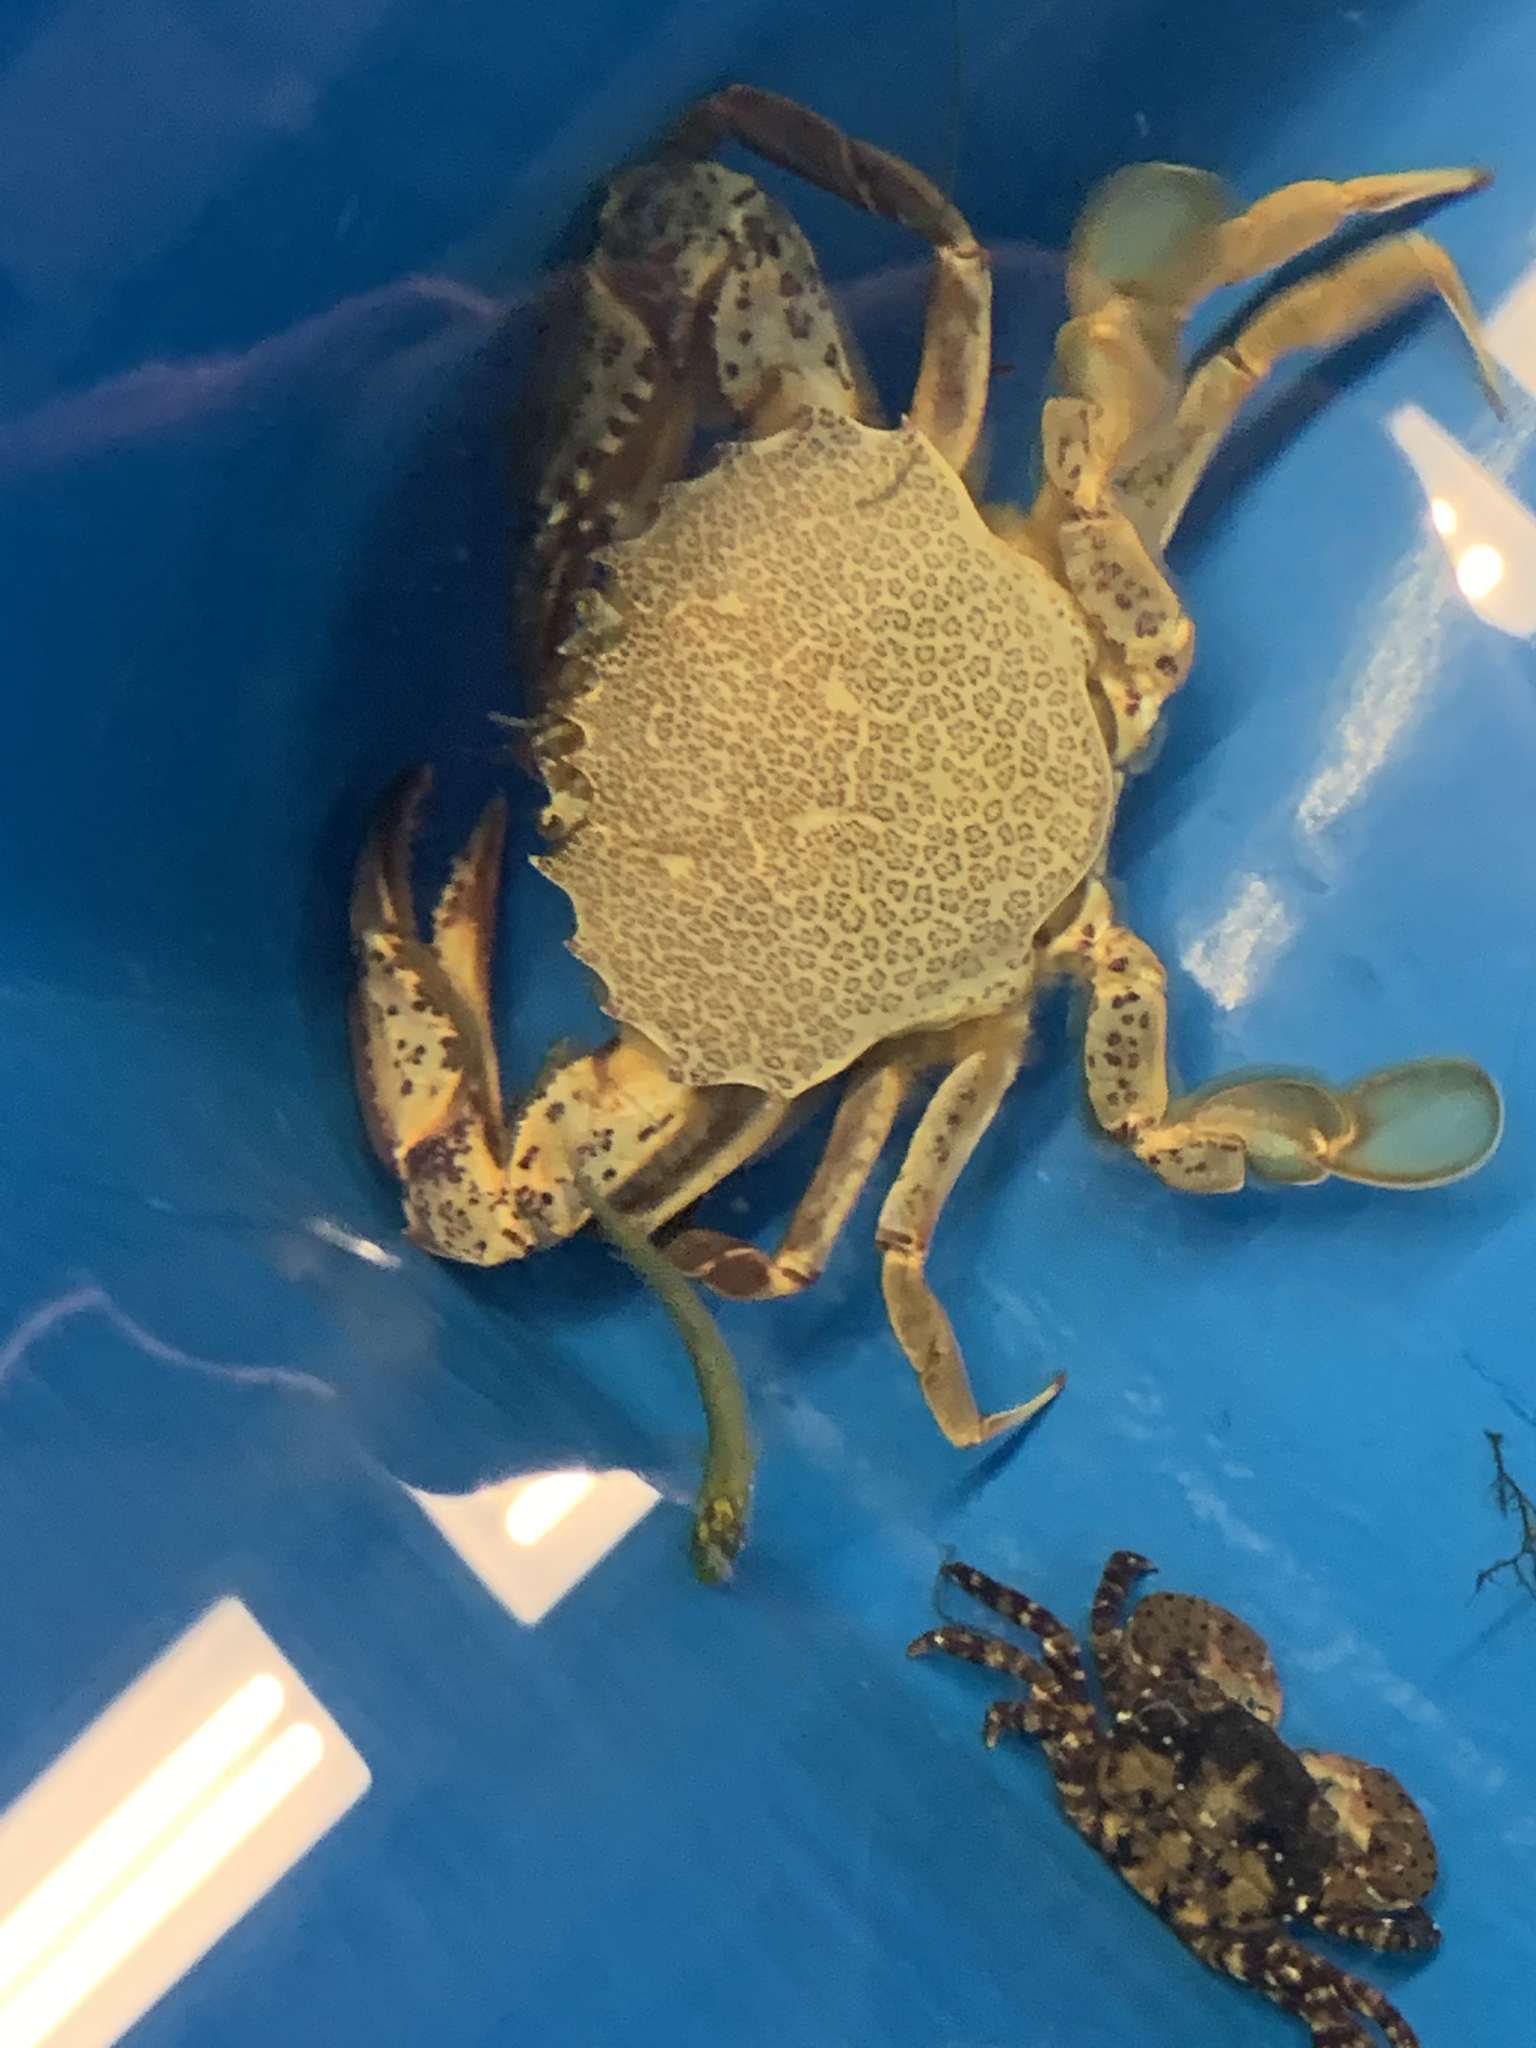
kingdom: Animalia
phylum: Arthropoda
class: Malacostraca
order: Decapoda
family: Ovalipidae
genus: Ovalipes
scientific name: Ovalipes ocellatus
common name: Lady crab
